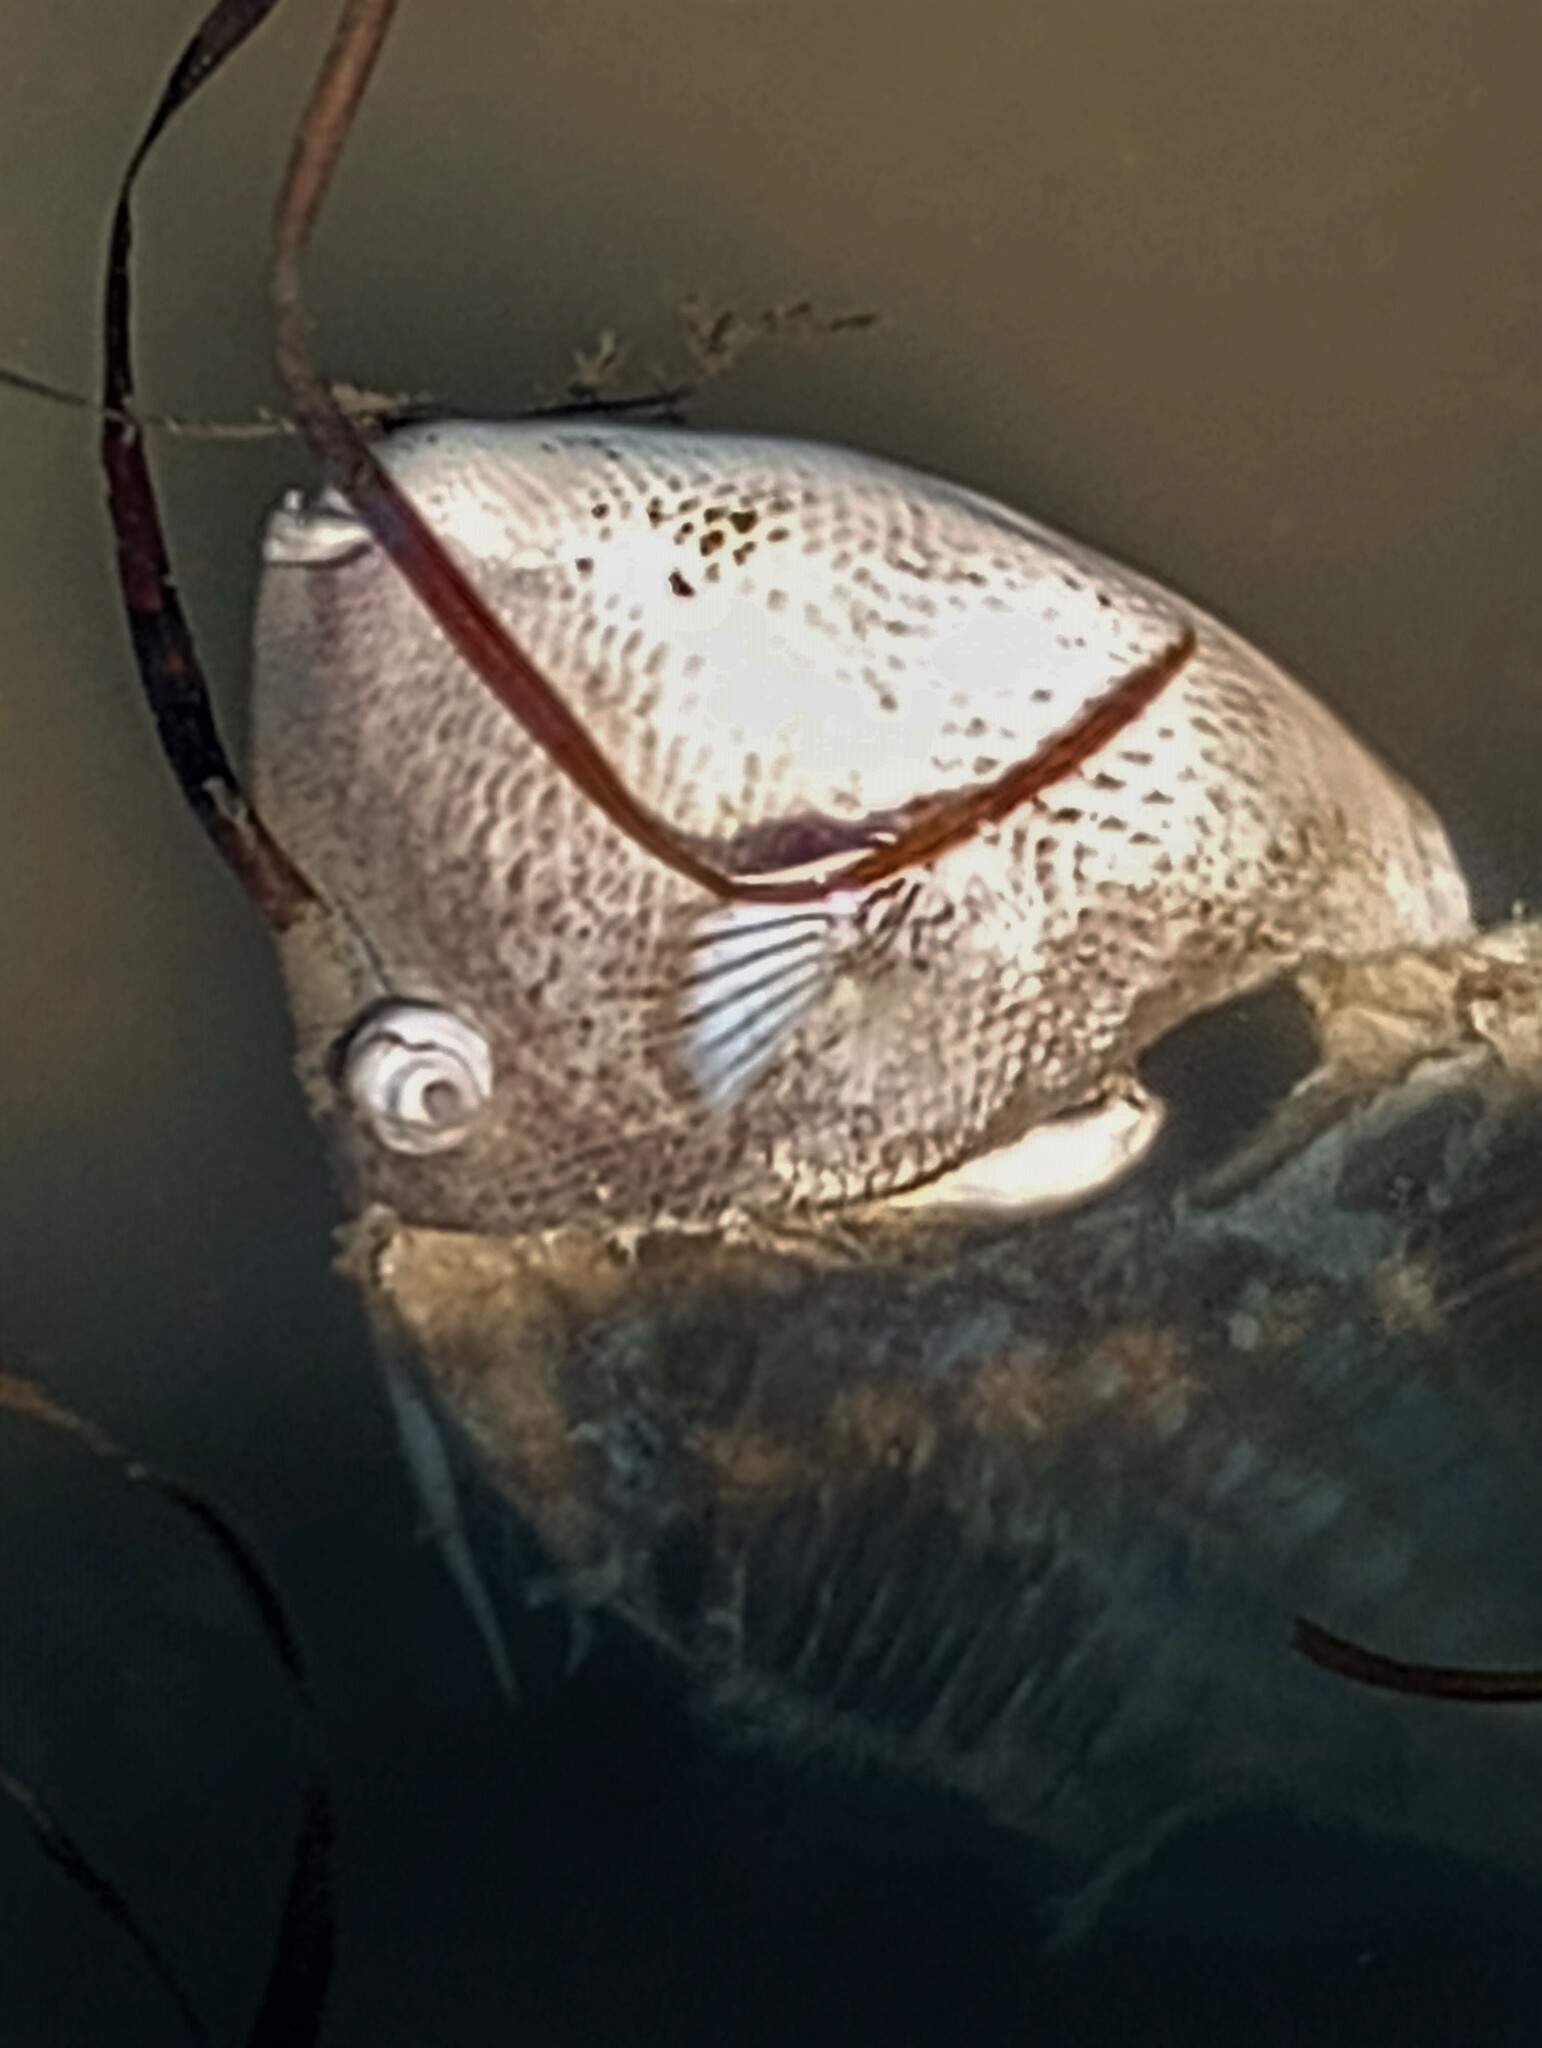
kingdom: Animalia
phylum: Chordata
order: Tetraodontiformes
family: Balistidae
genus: Balistes
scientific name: Balistes capriscus
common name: Grey triggerfish
